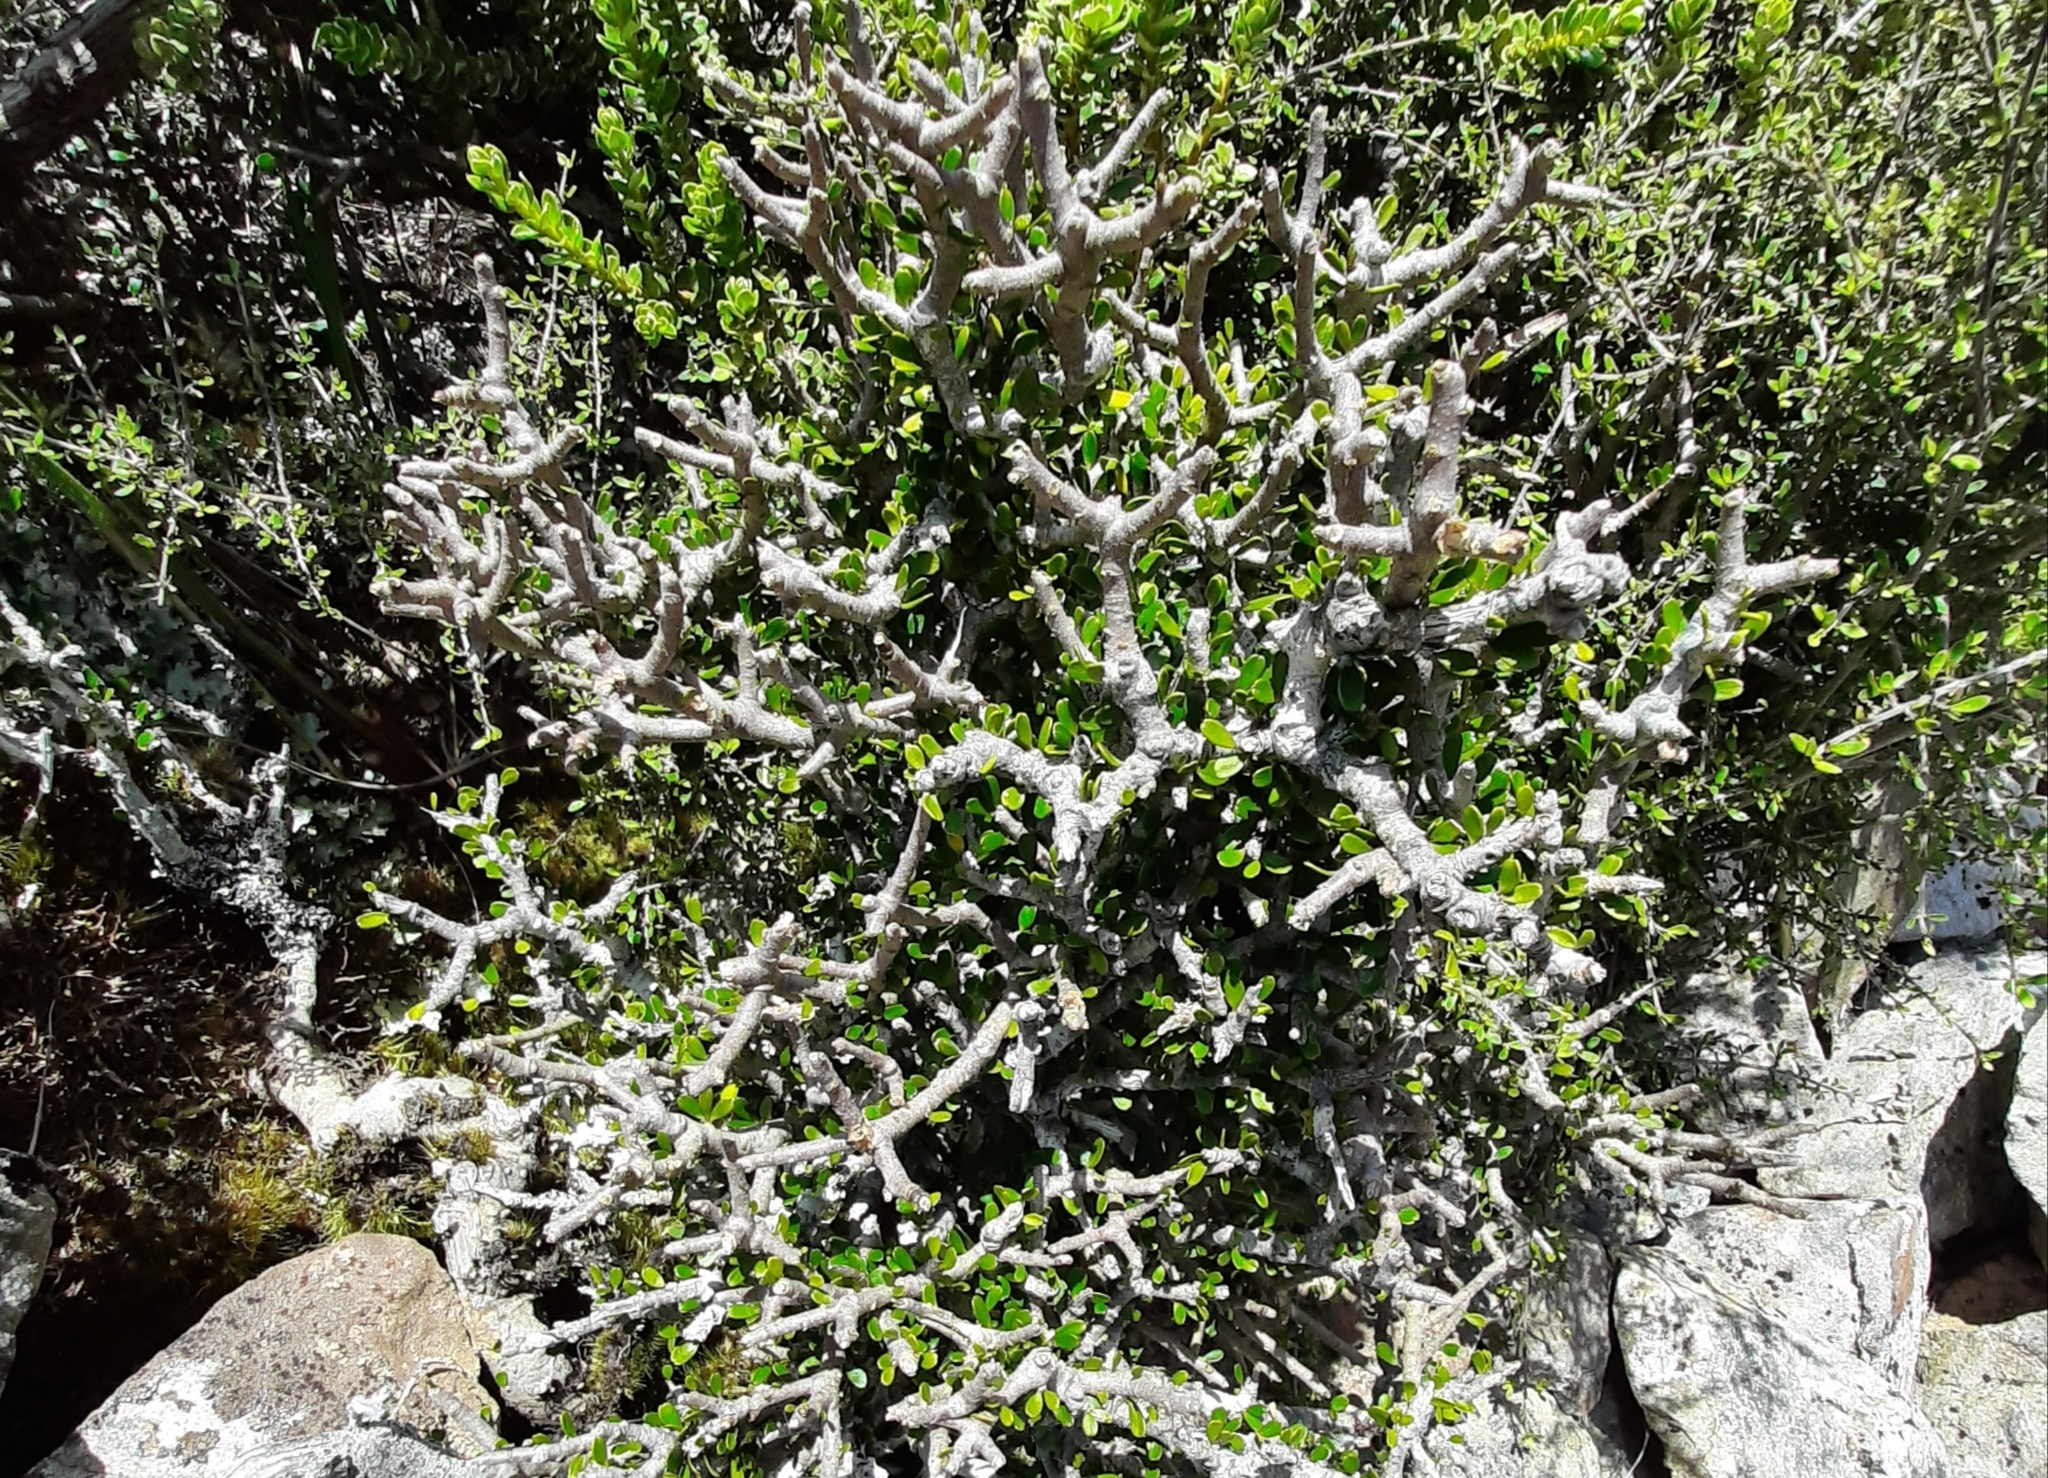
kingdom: Plantae
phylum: Tracheophyta
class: Magnoliopsida
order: Malpighiales
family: Violaceae
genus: Melicytus
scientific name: Melicytus alpinus
